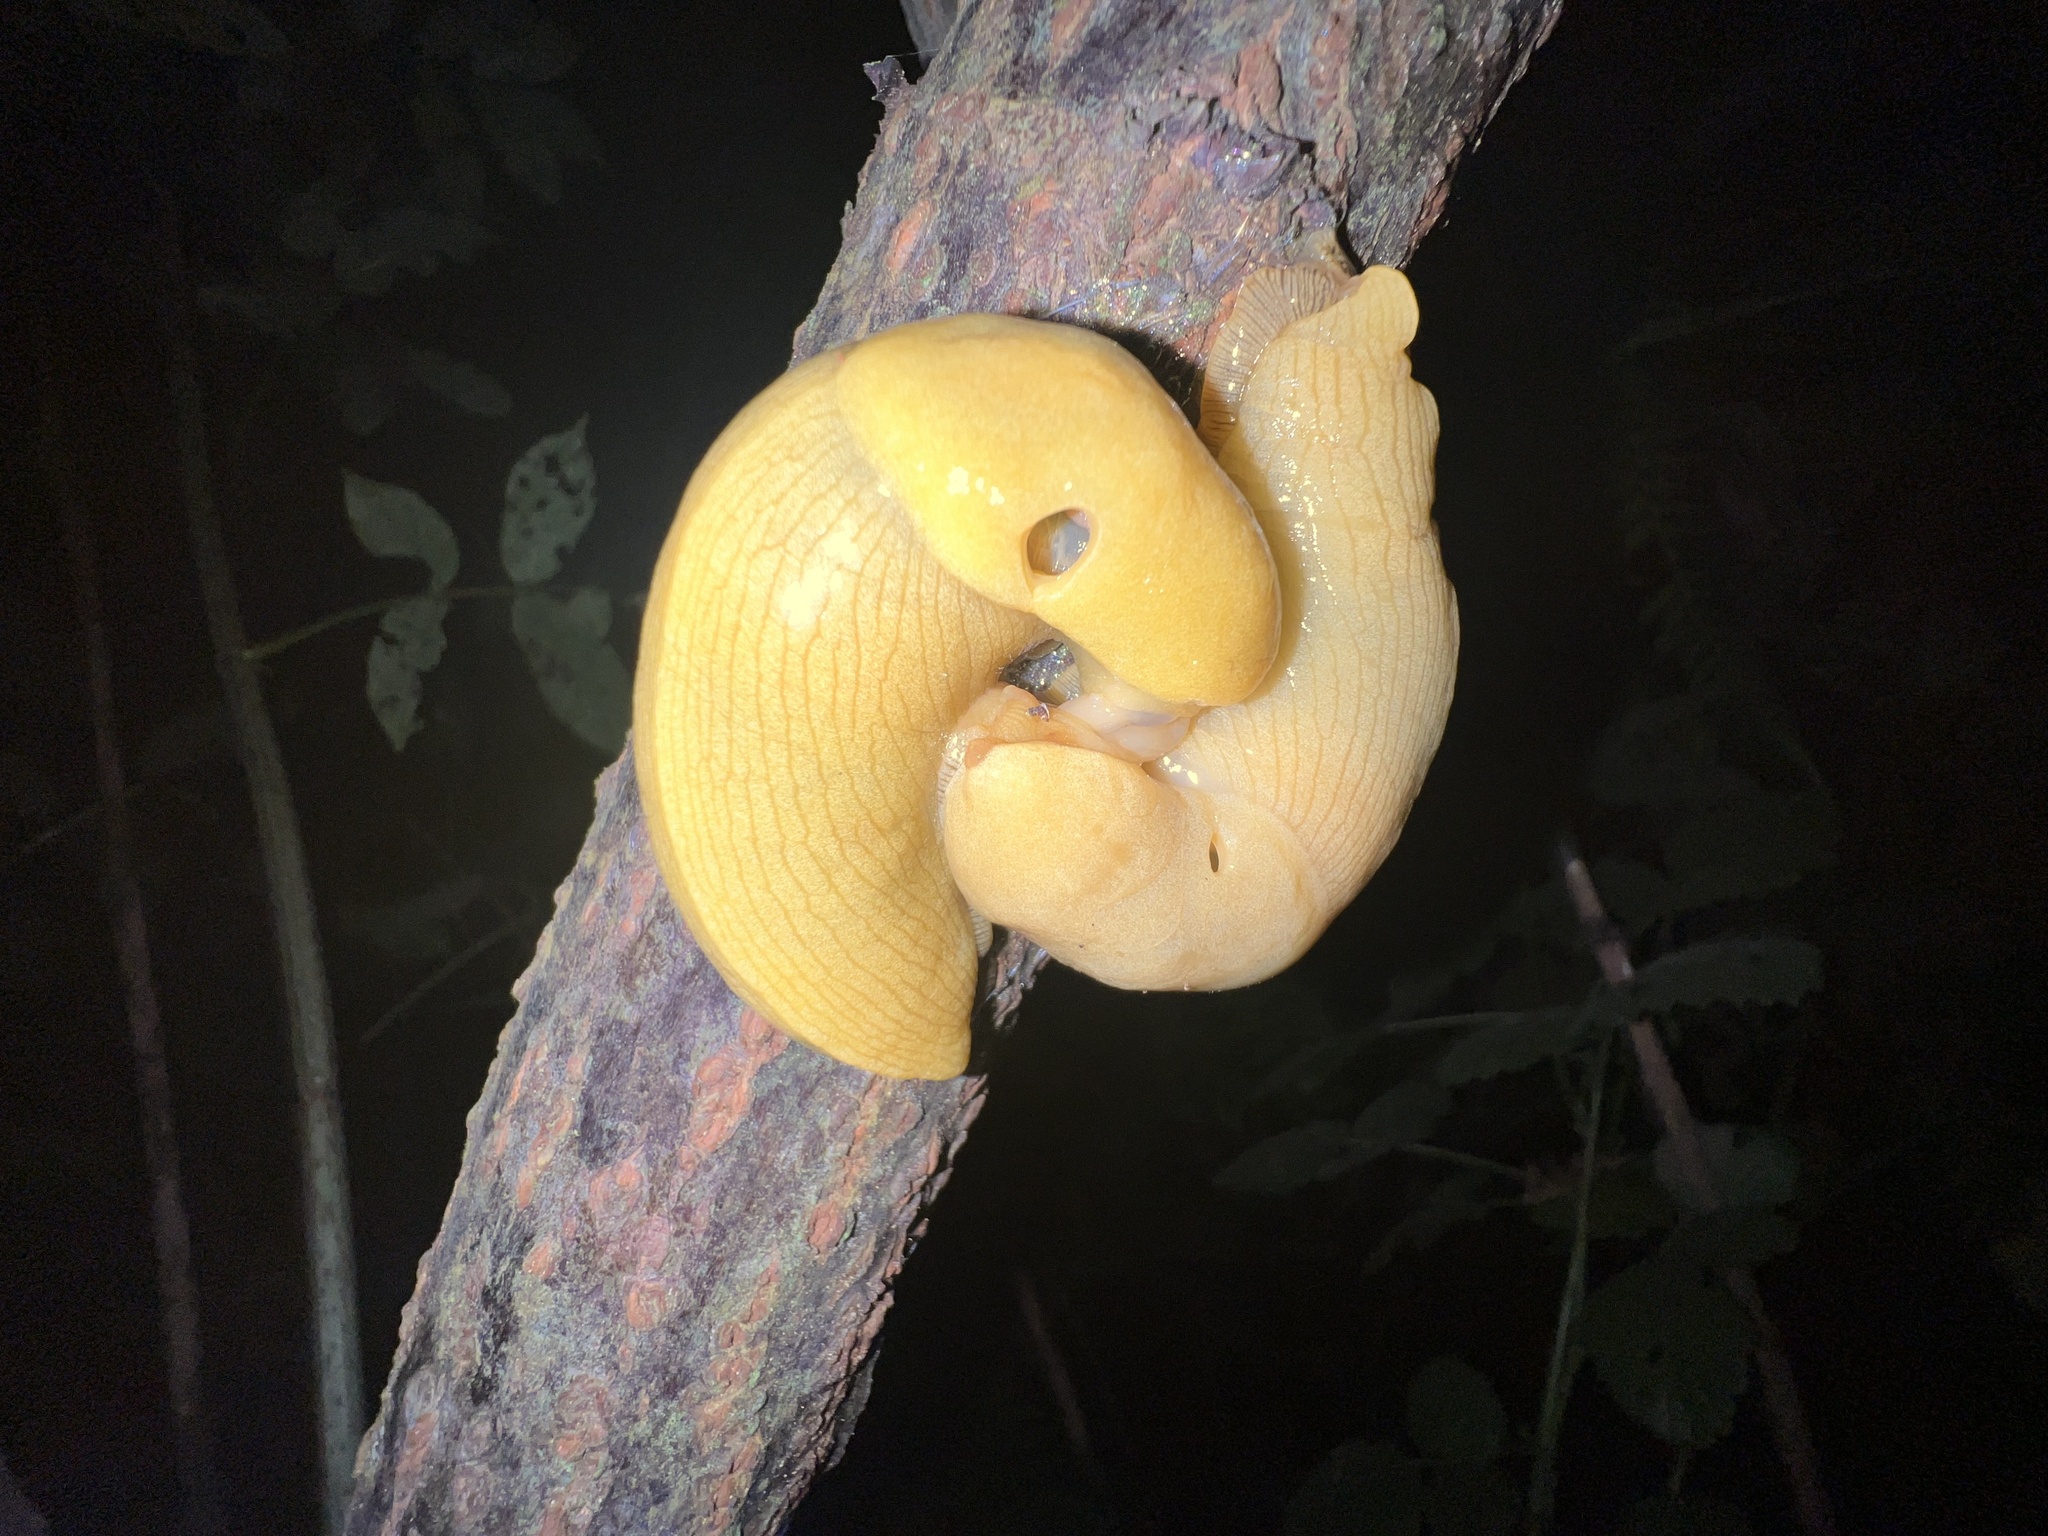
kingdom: Animalia
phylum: Mollusca
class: Gastropoda
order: Stylommatophora
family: Ariolimacidae
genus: Ariolimax
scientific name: Ariolimax columbianus
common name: Pacific banana slug
